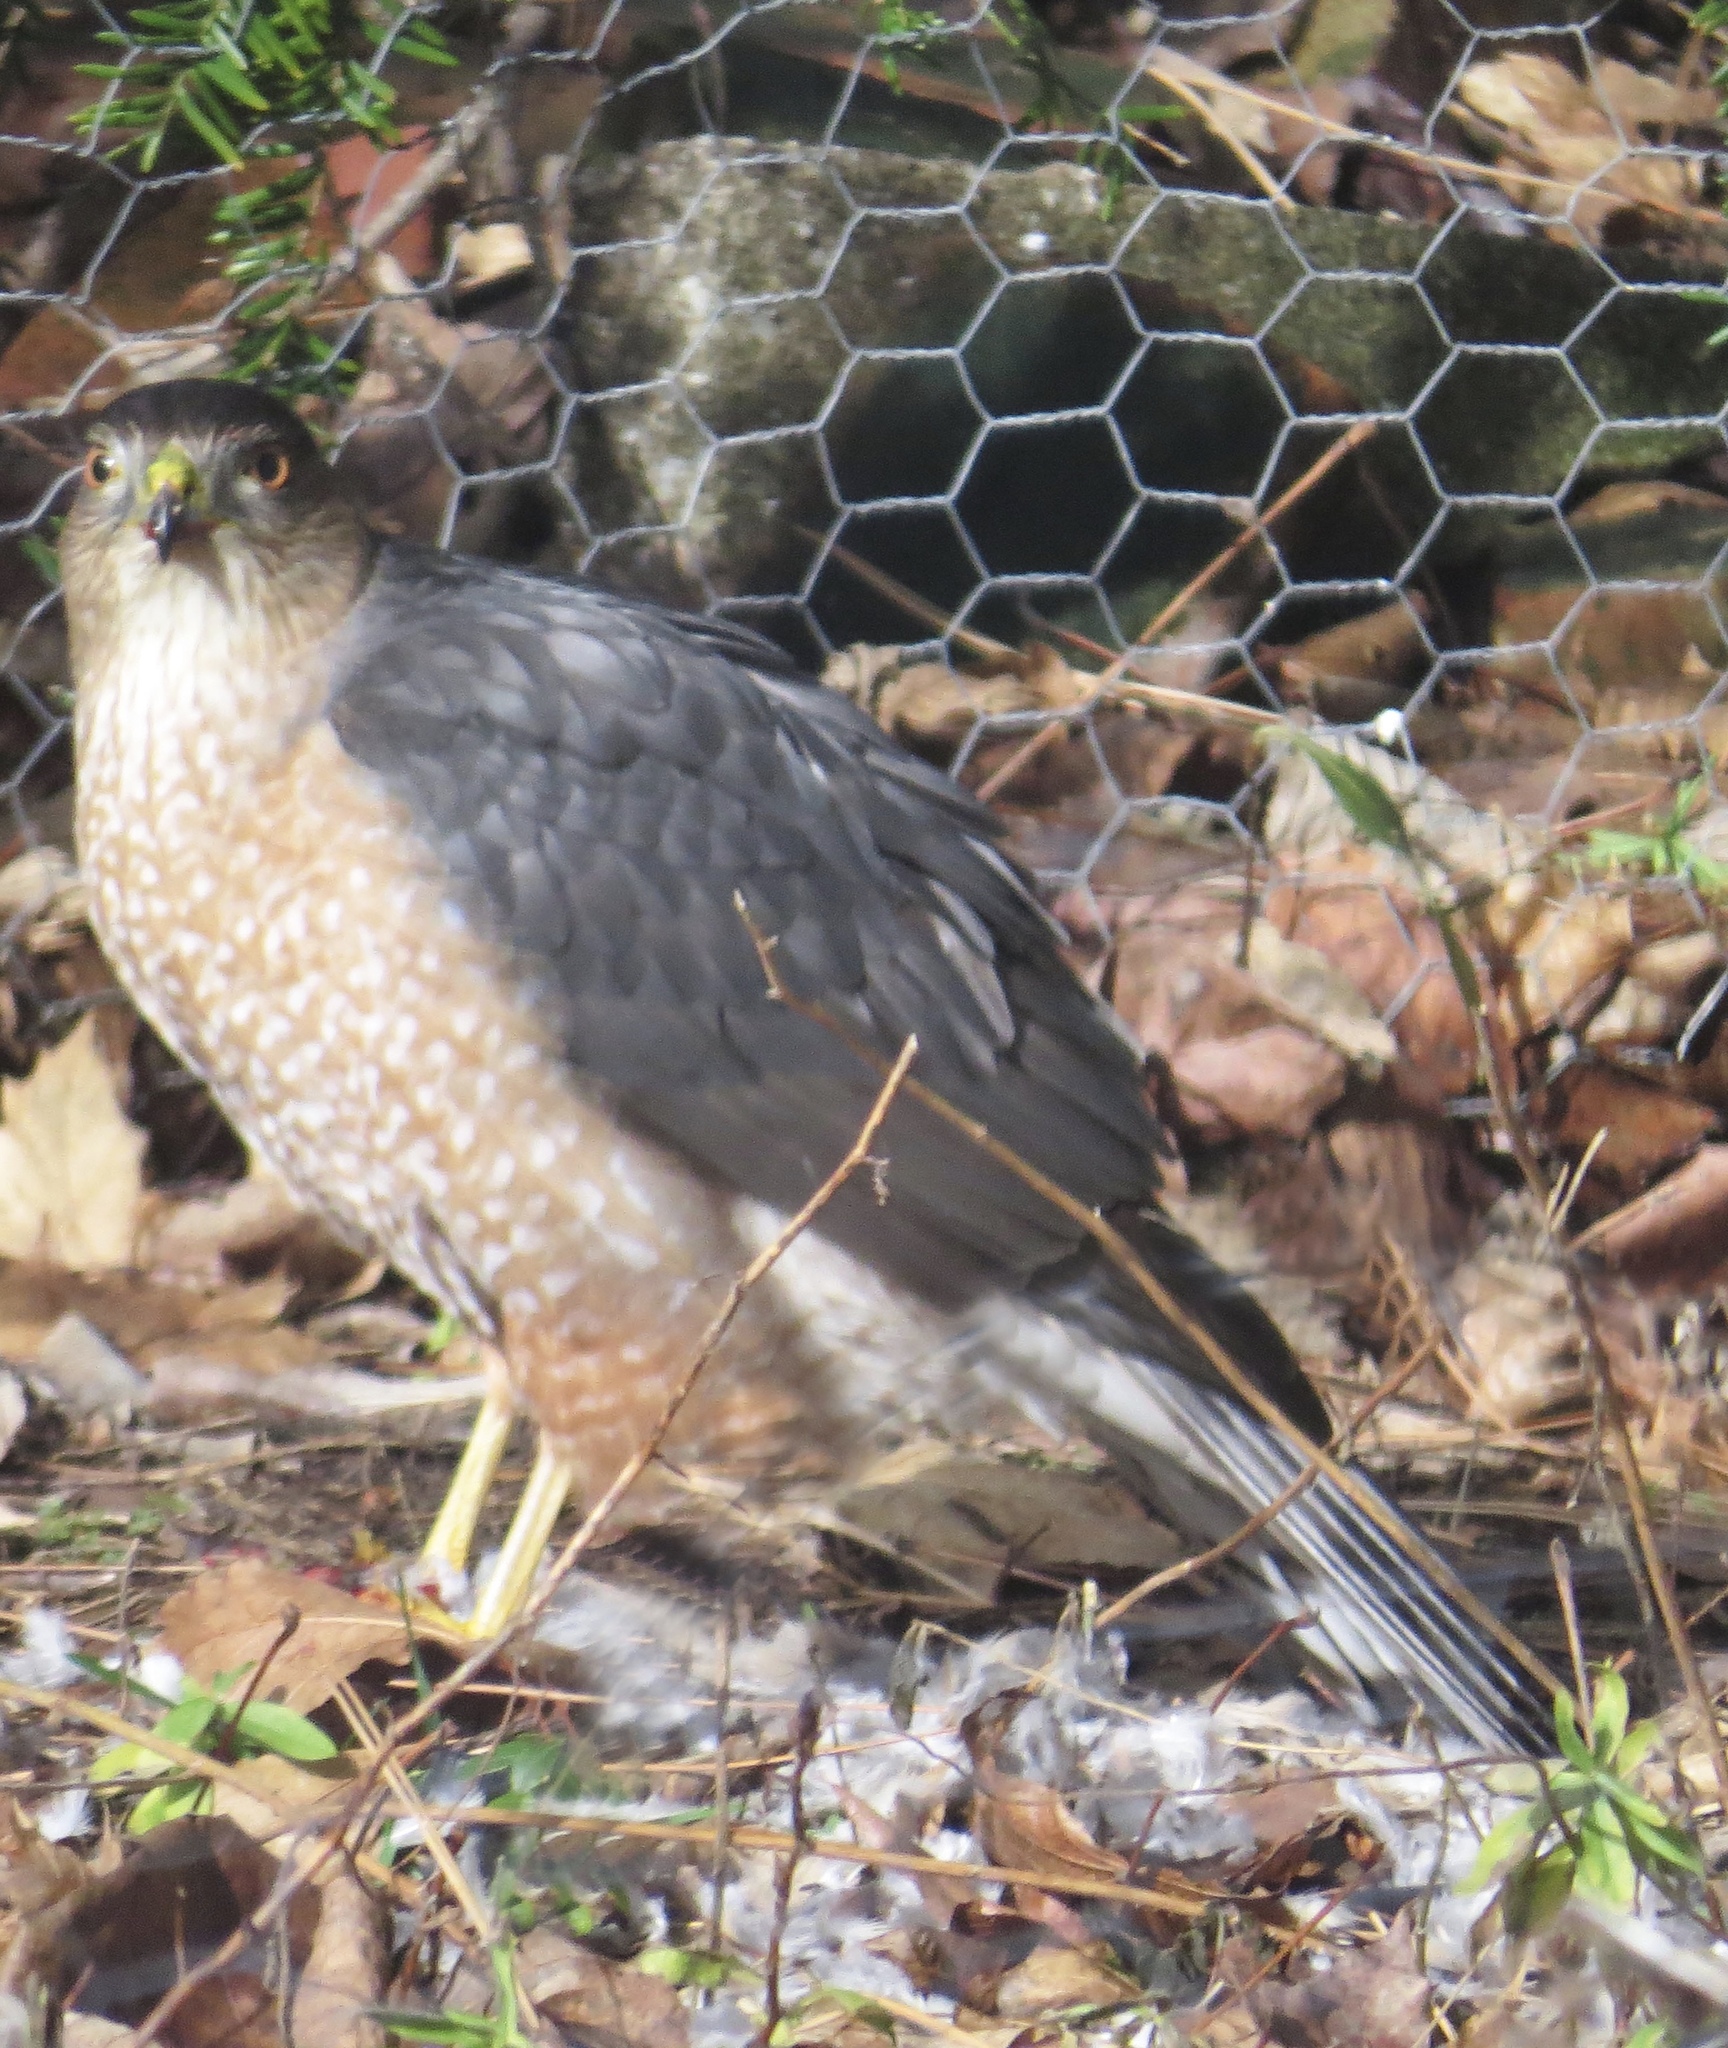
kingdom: Animalia
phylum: Chordata
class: Aves
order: Accipitriformes
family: Accipitridae
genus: Accipiter
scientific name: Accipiter cooperii
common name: Cooper's hawk
